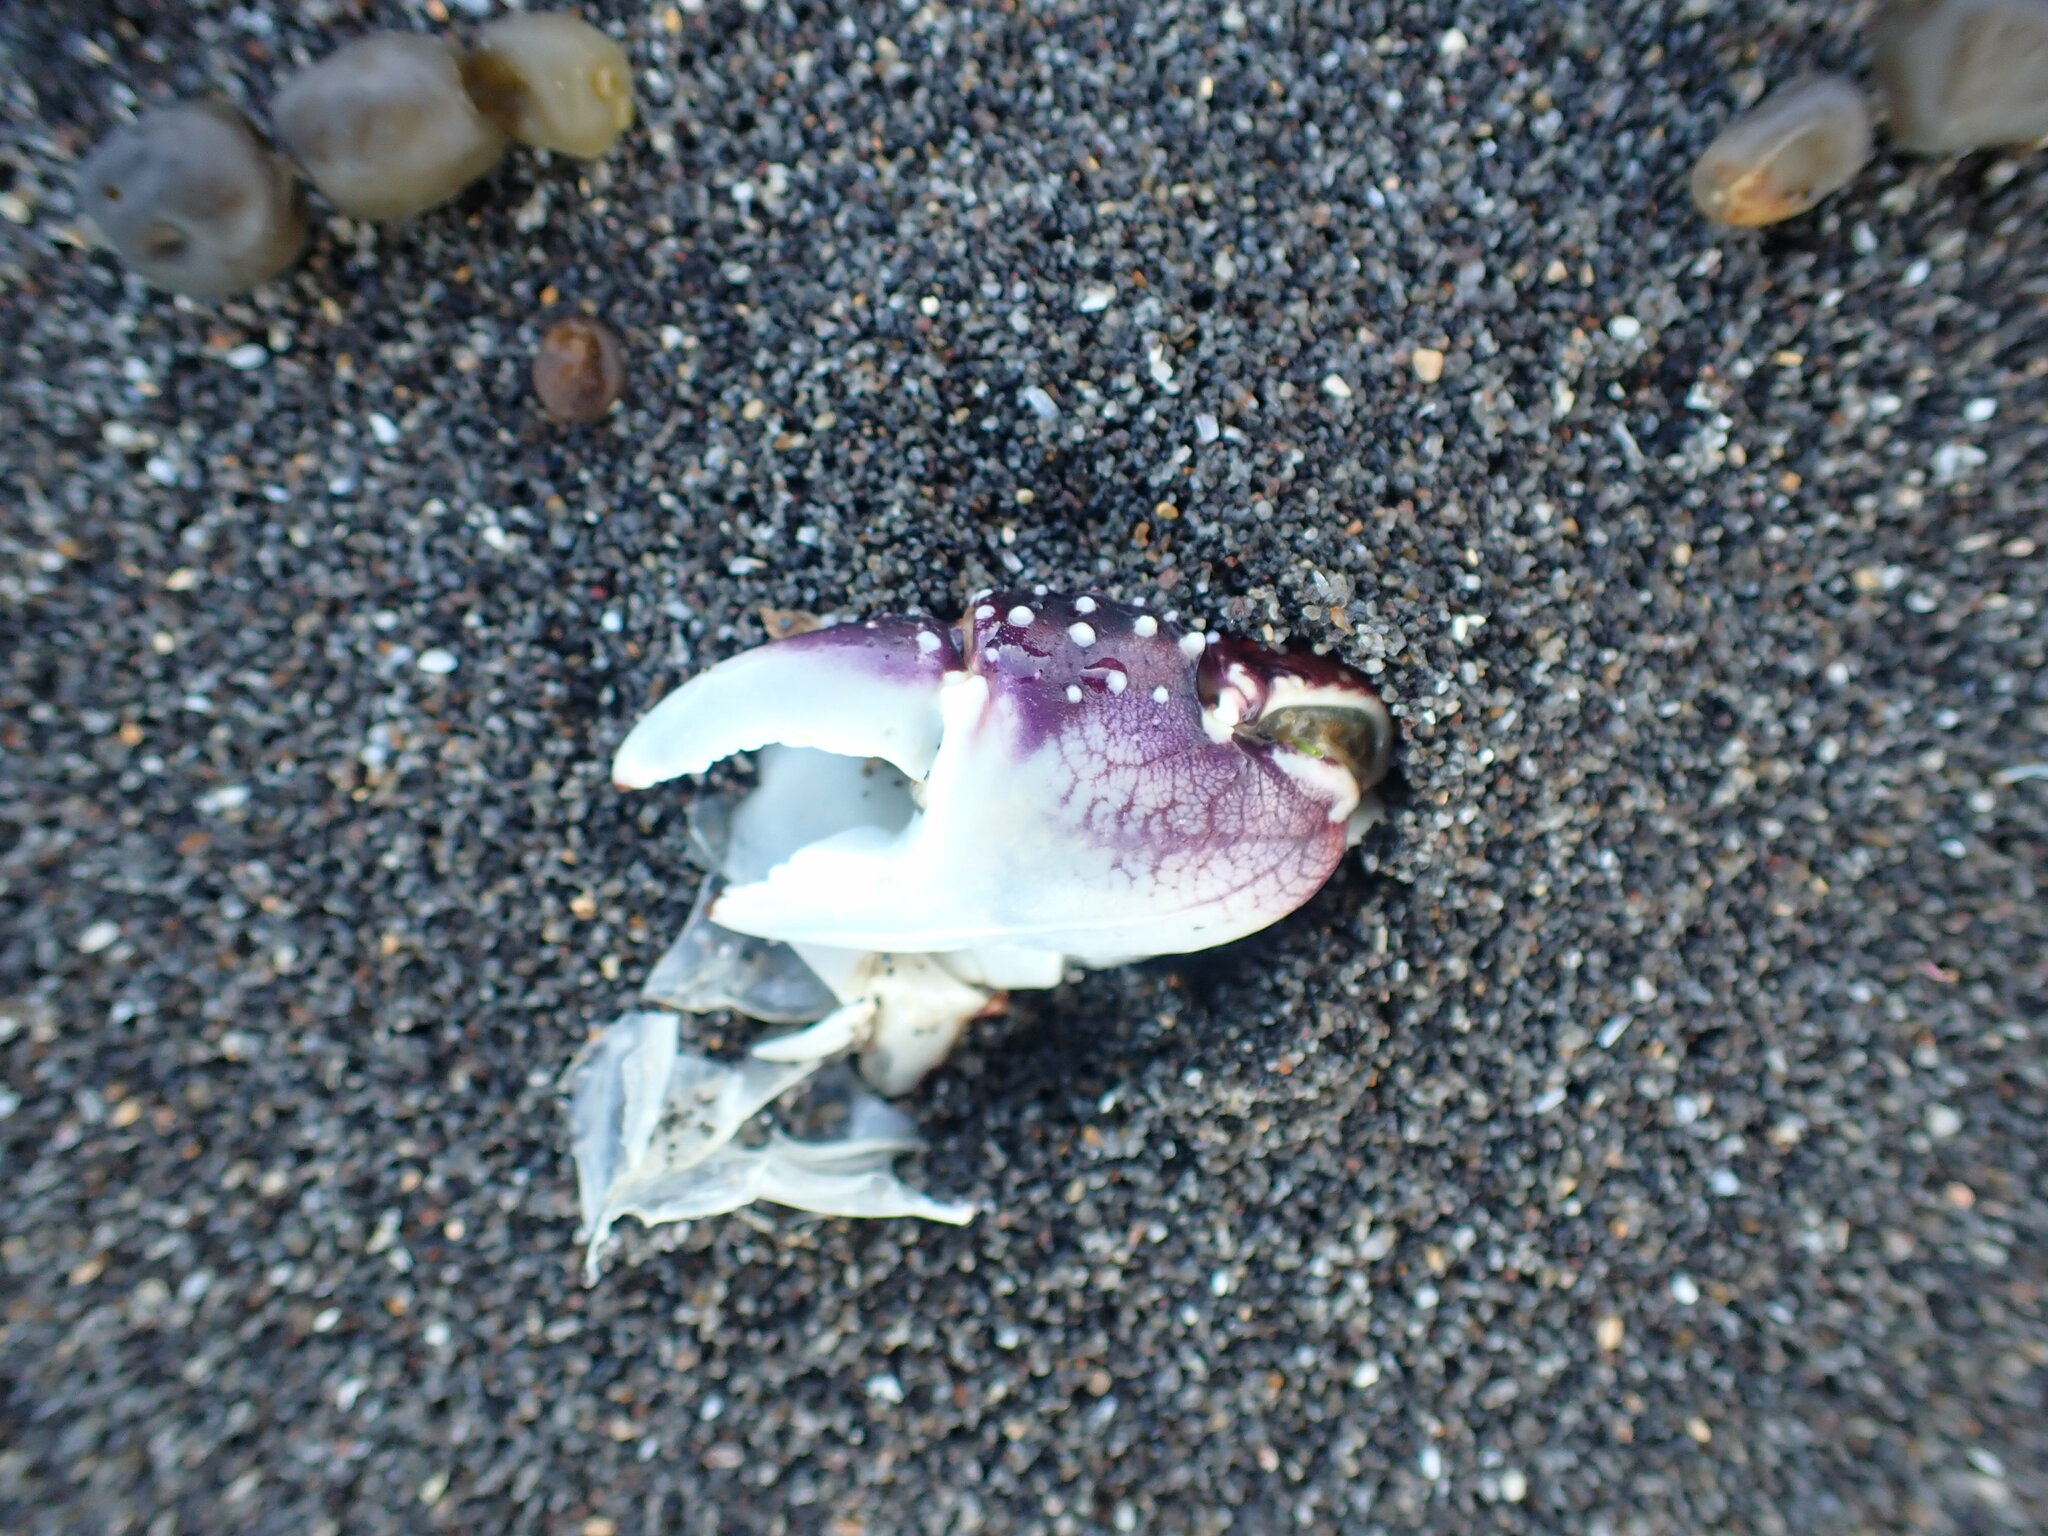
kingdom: Animalia
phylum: Arthropoda
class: Malacostraca
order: Decapoda
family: Grapsidae
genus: Leptograpsus
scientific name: Leptograpsus variegatus
